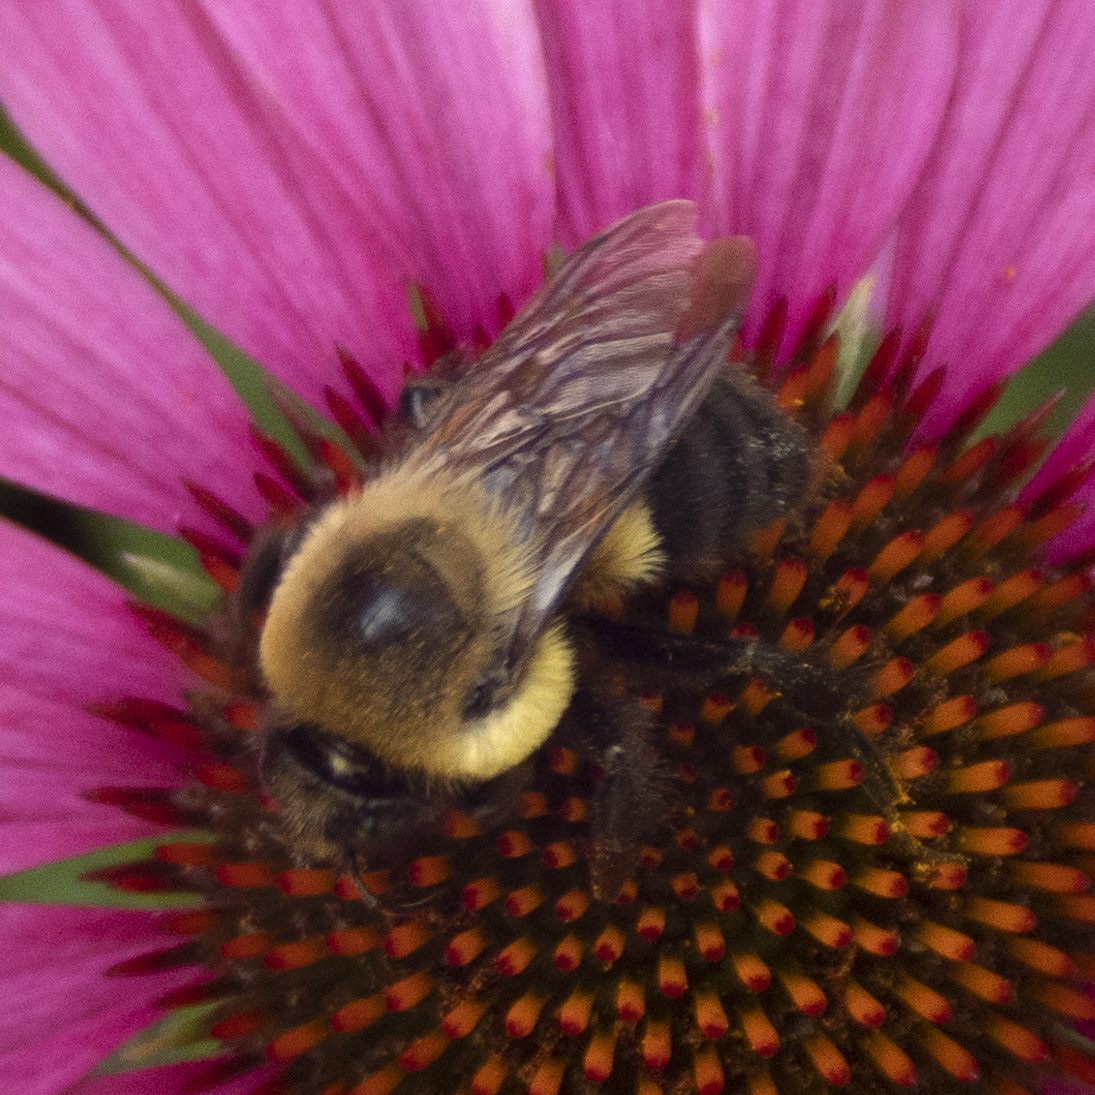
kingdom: Animalia
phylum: Arthropoda
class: Insecta
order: Hymenoptera
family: Apidae
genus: Bombus
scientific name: Bombus griseocollis
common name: Brown-belted bumble bee
